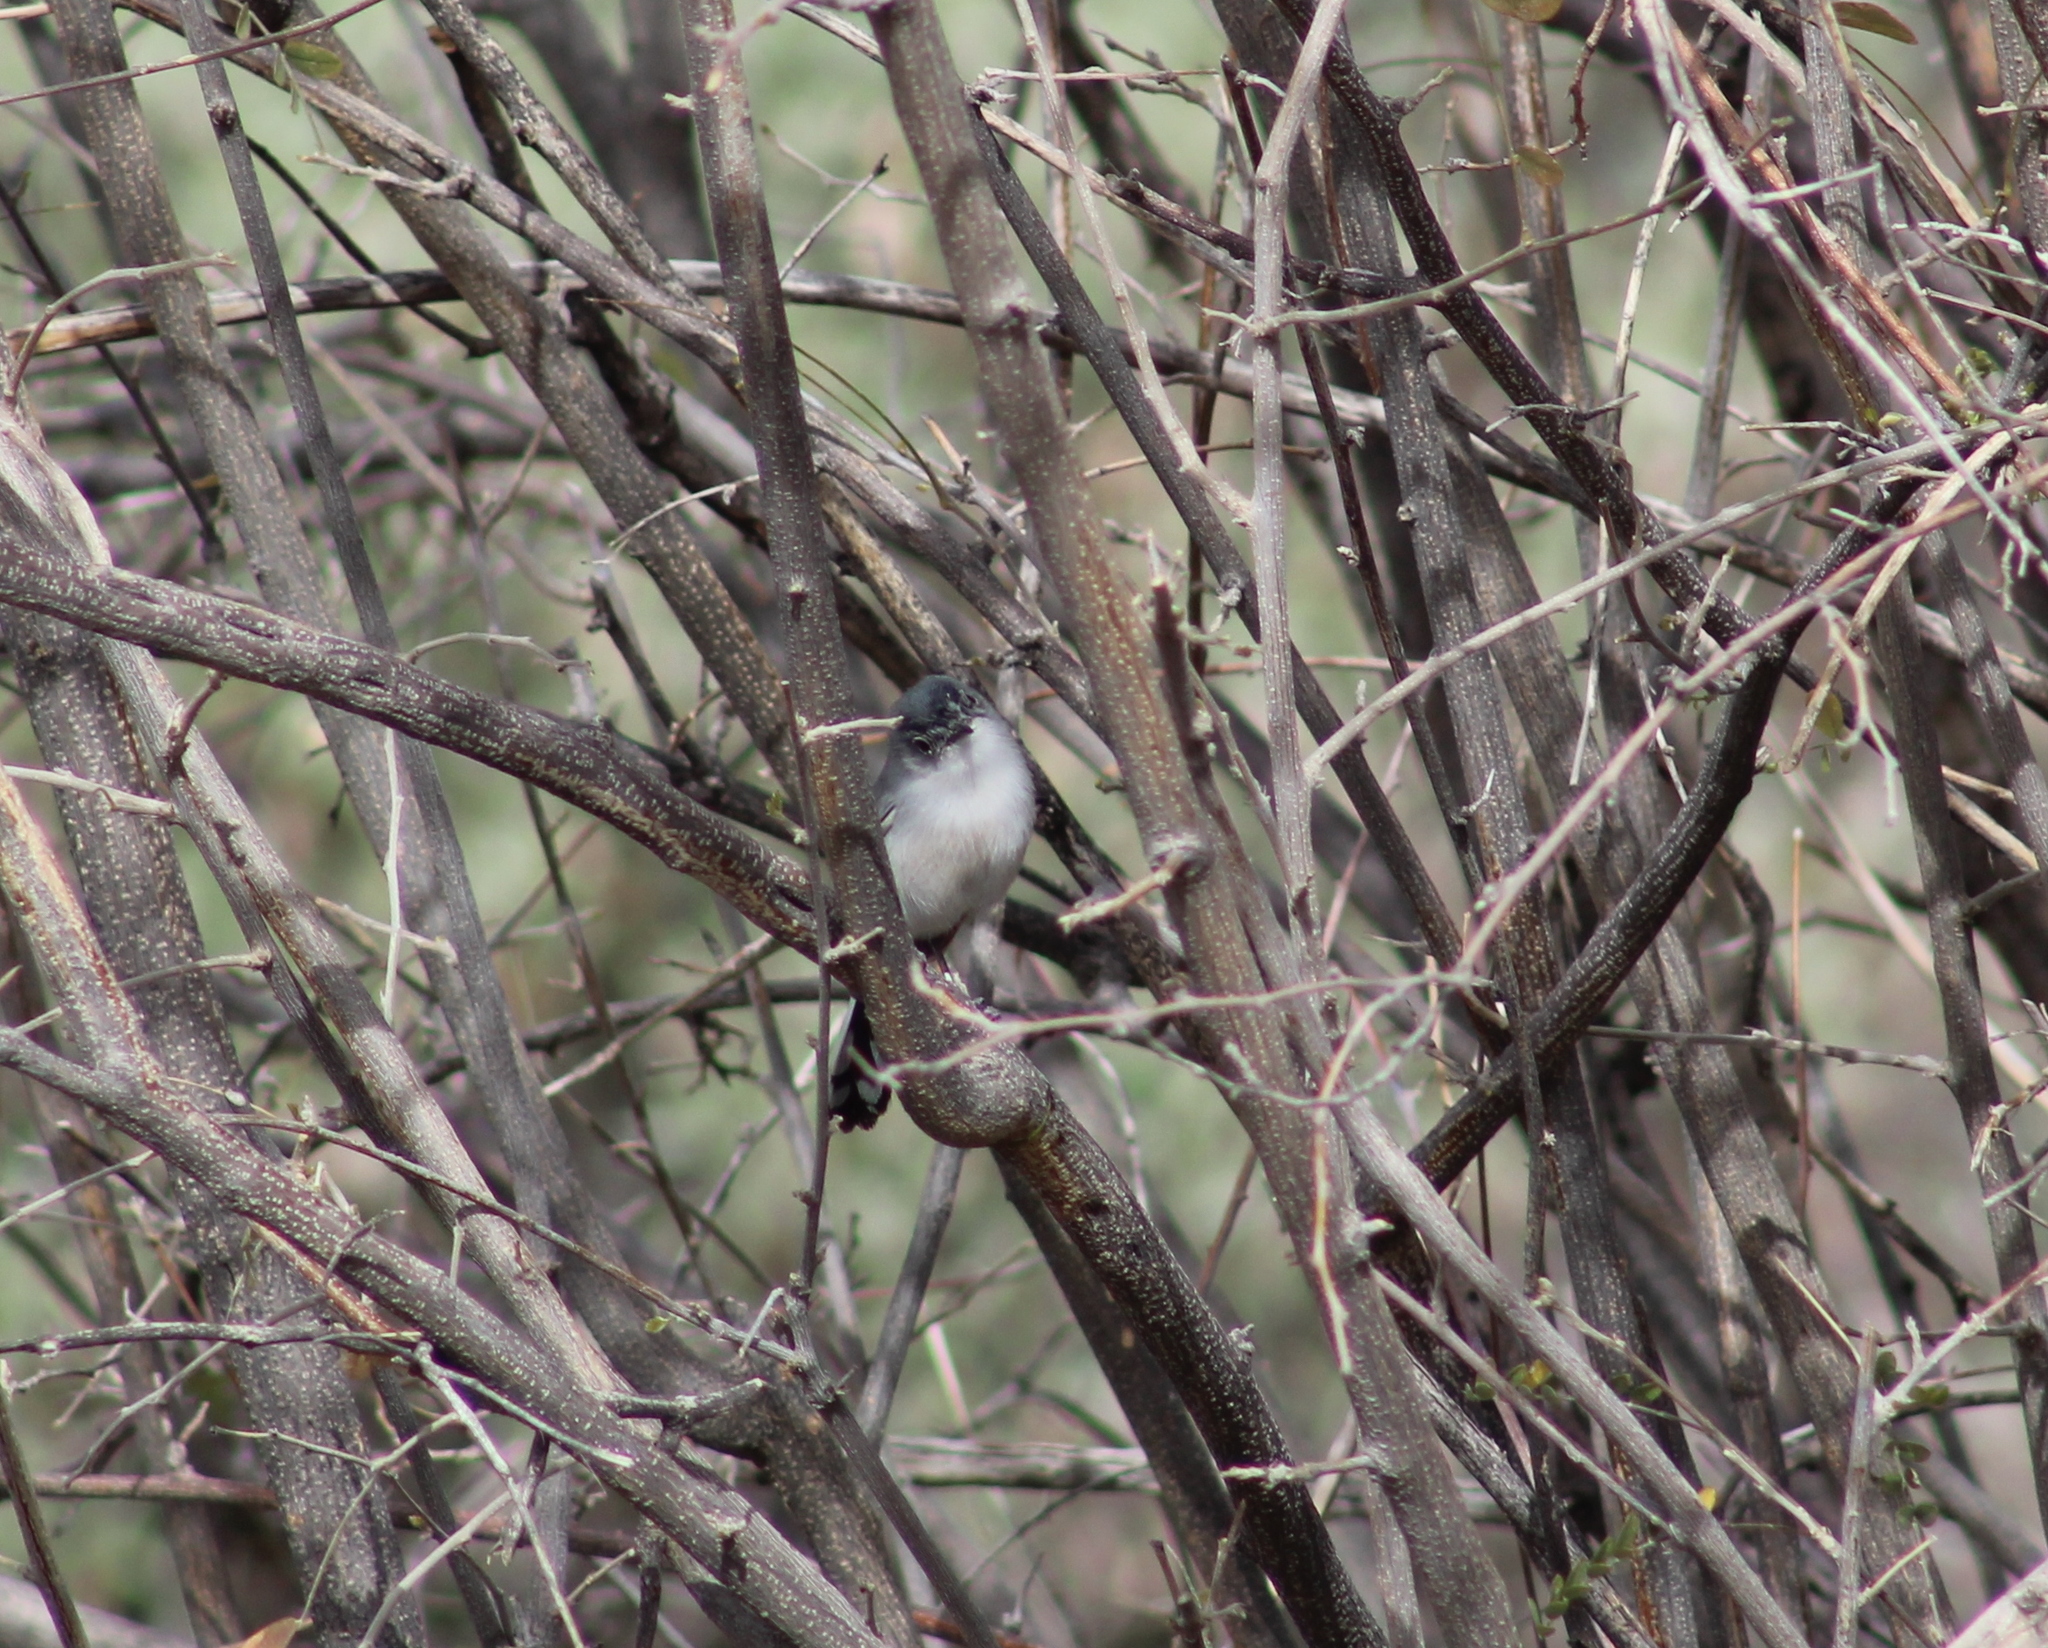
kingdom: Animalia
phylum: Chordata
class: Aves
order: Passeriformes
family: Polioptilidae
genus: Polioptila
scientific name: Polioptila melanura
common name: Black-tailed gnatcatcher
